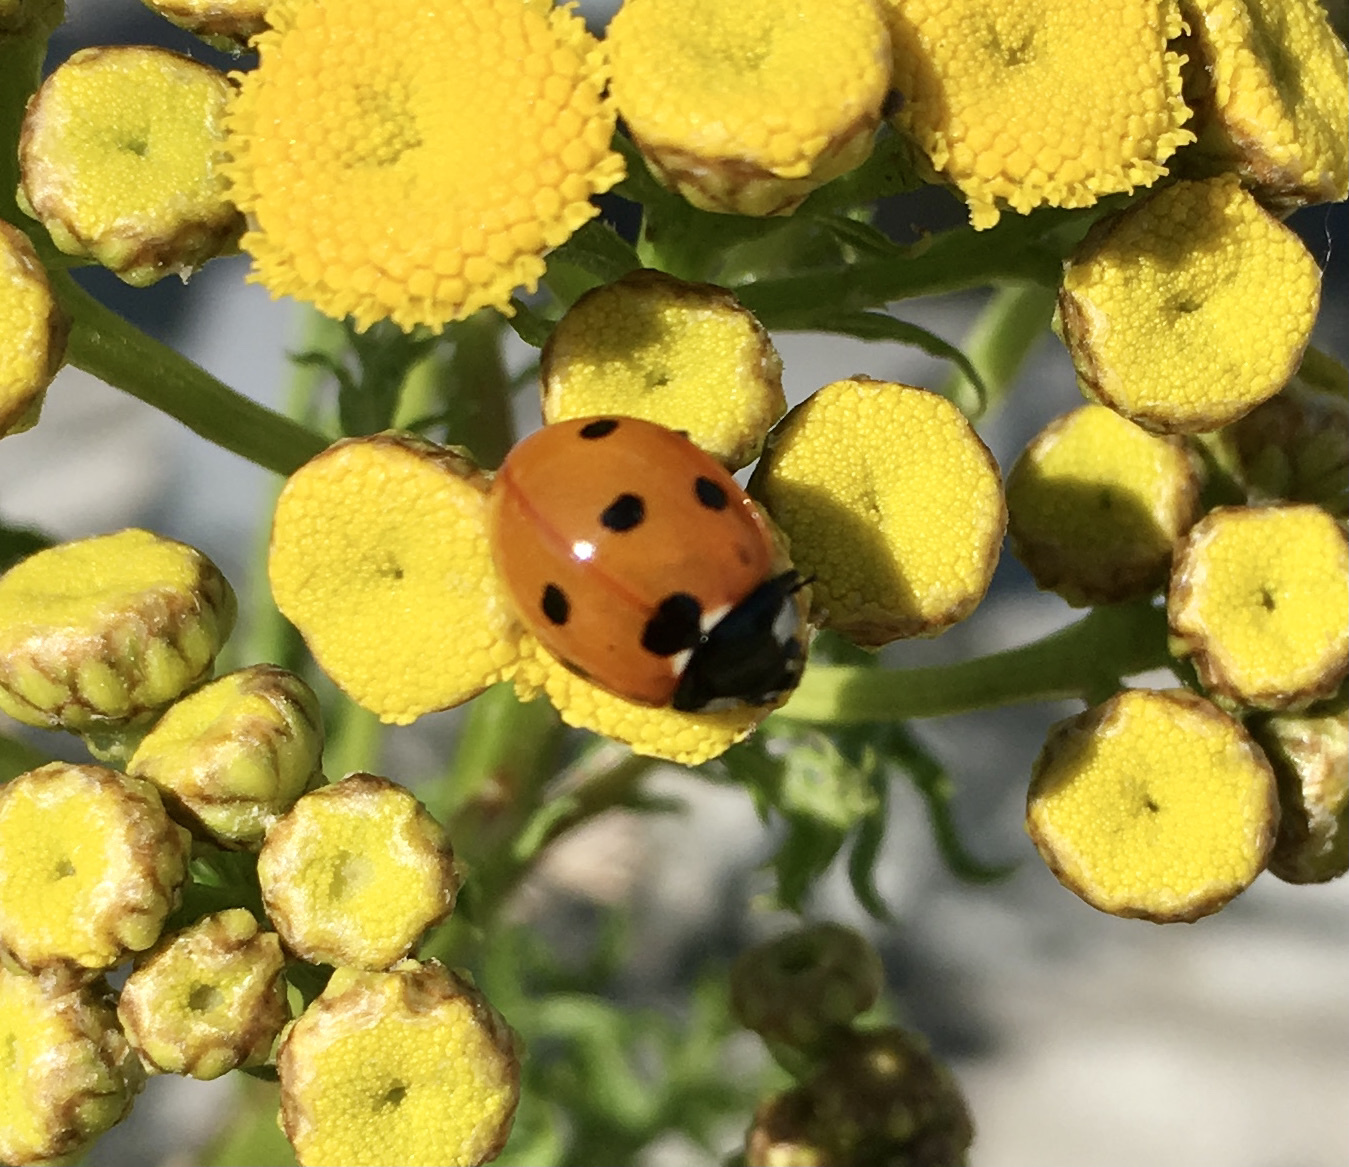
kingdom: Animalia
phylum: Arthropoda
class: Insecta
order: Coleoptera
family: Coccinellidae
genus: Coccinella
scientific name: Coccinella septempunctata
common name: Sevenspotted lady beetle
